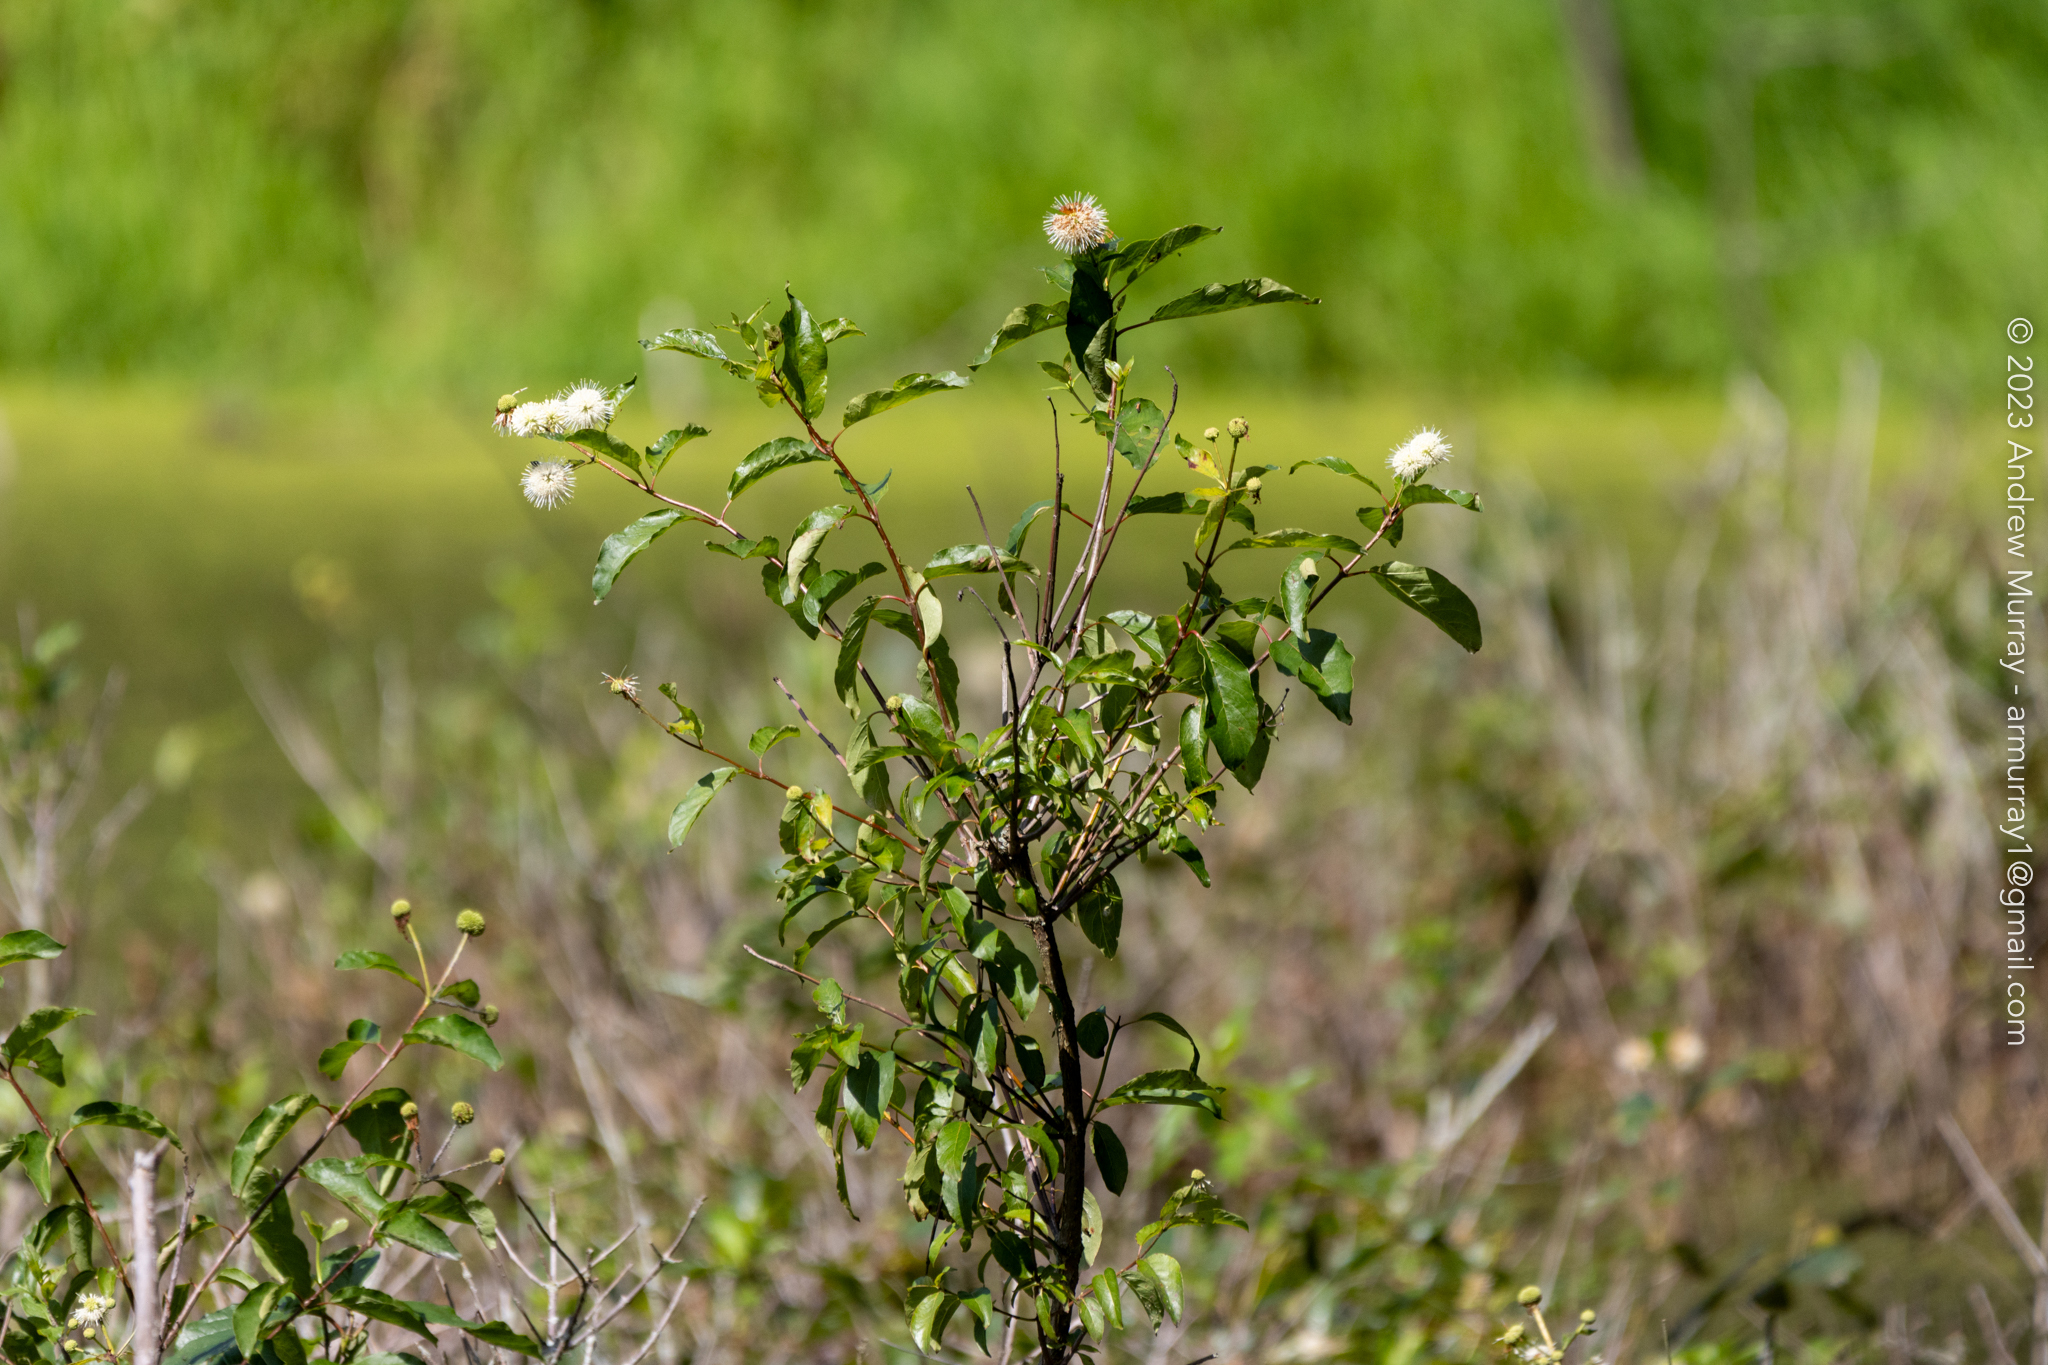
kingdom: Plantae
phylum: Tracheophyta
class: Magnoliopsida
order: Gentianales
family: Rubiaceae
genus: Cephalanthus
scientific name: Cephalanthus occidentalis
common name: Button-willow
